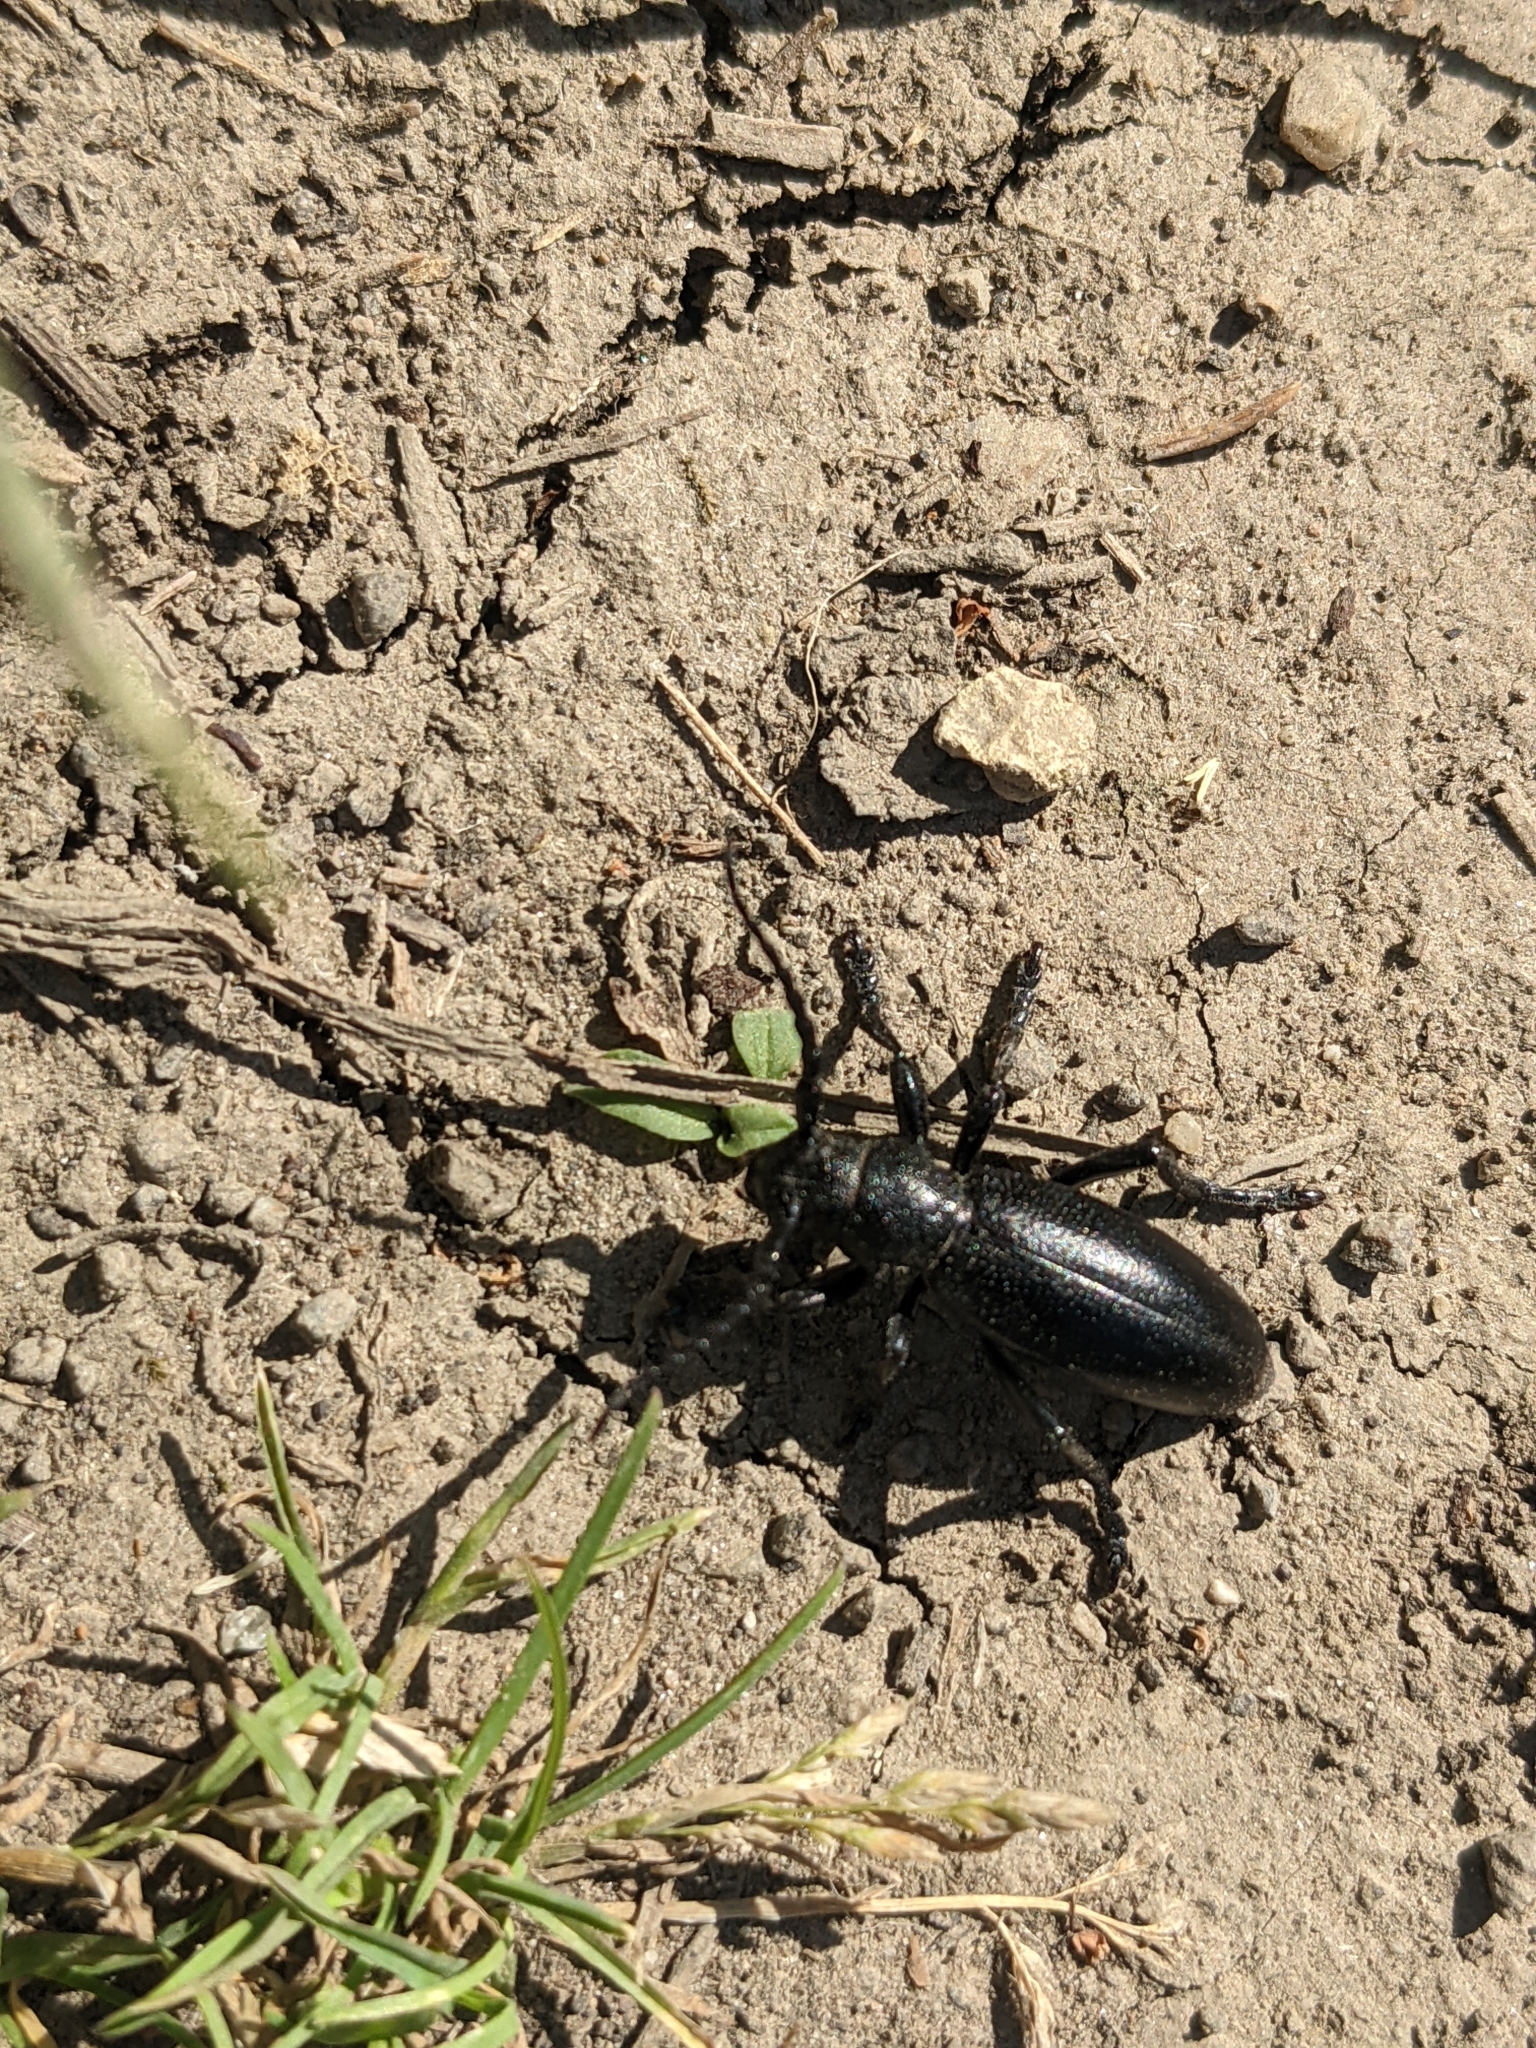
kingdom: Animalia
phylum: Arthropoda
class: Insecta
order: Coleoptera
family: Cerambycidae
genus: Dorcadion
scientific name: Dorcadion aethiops
